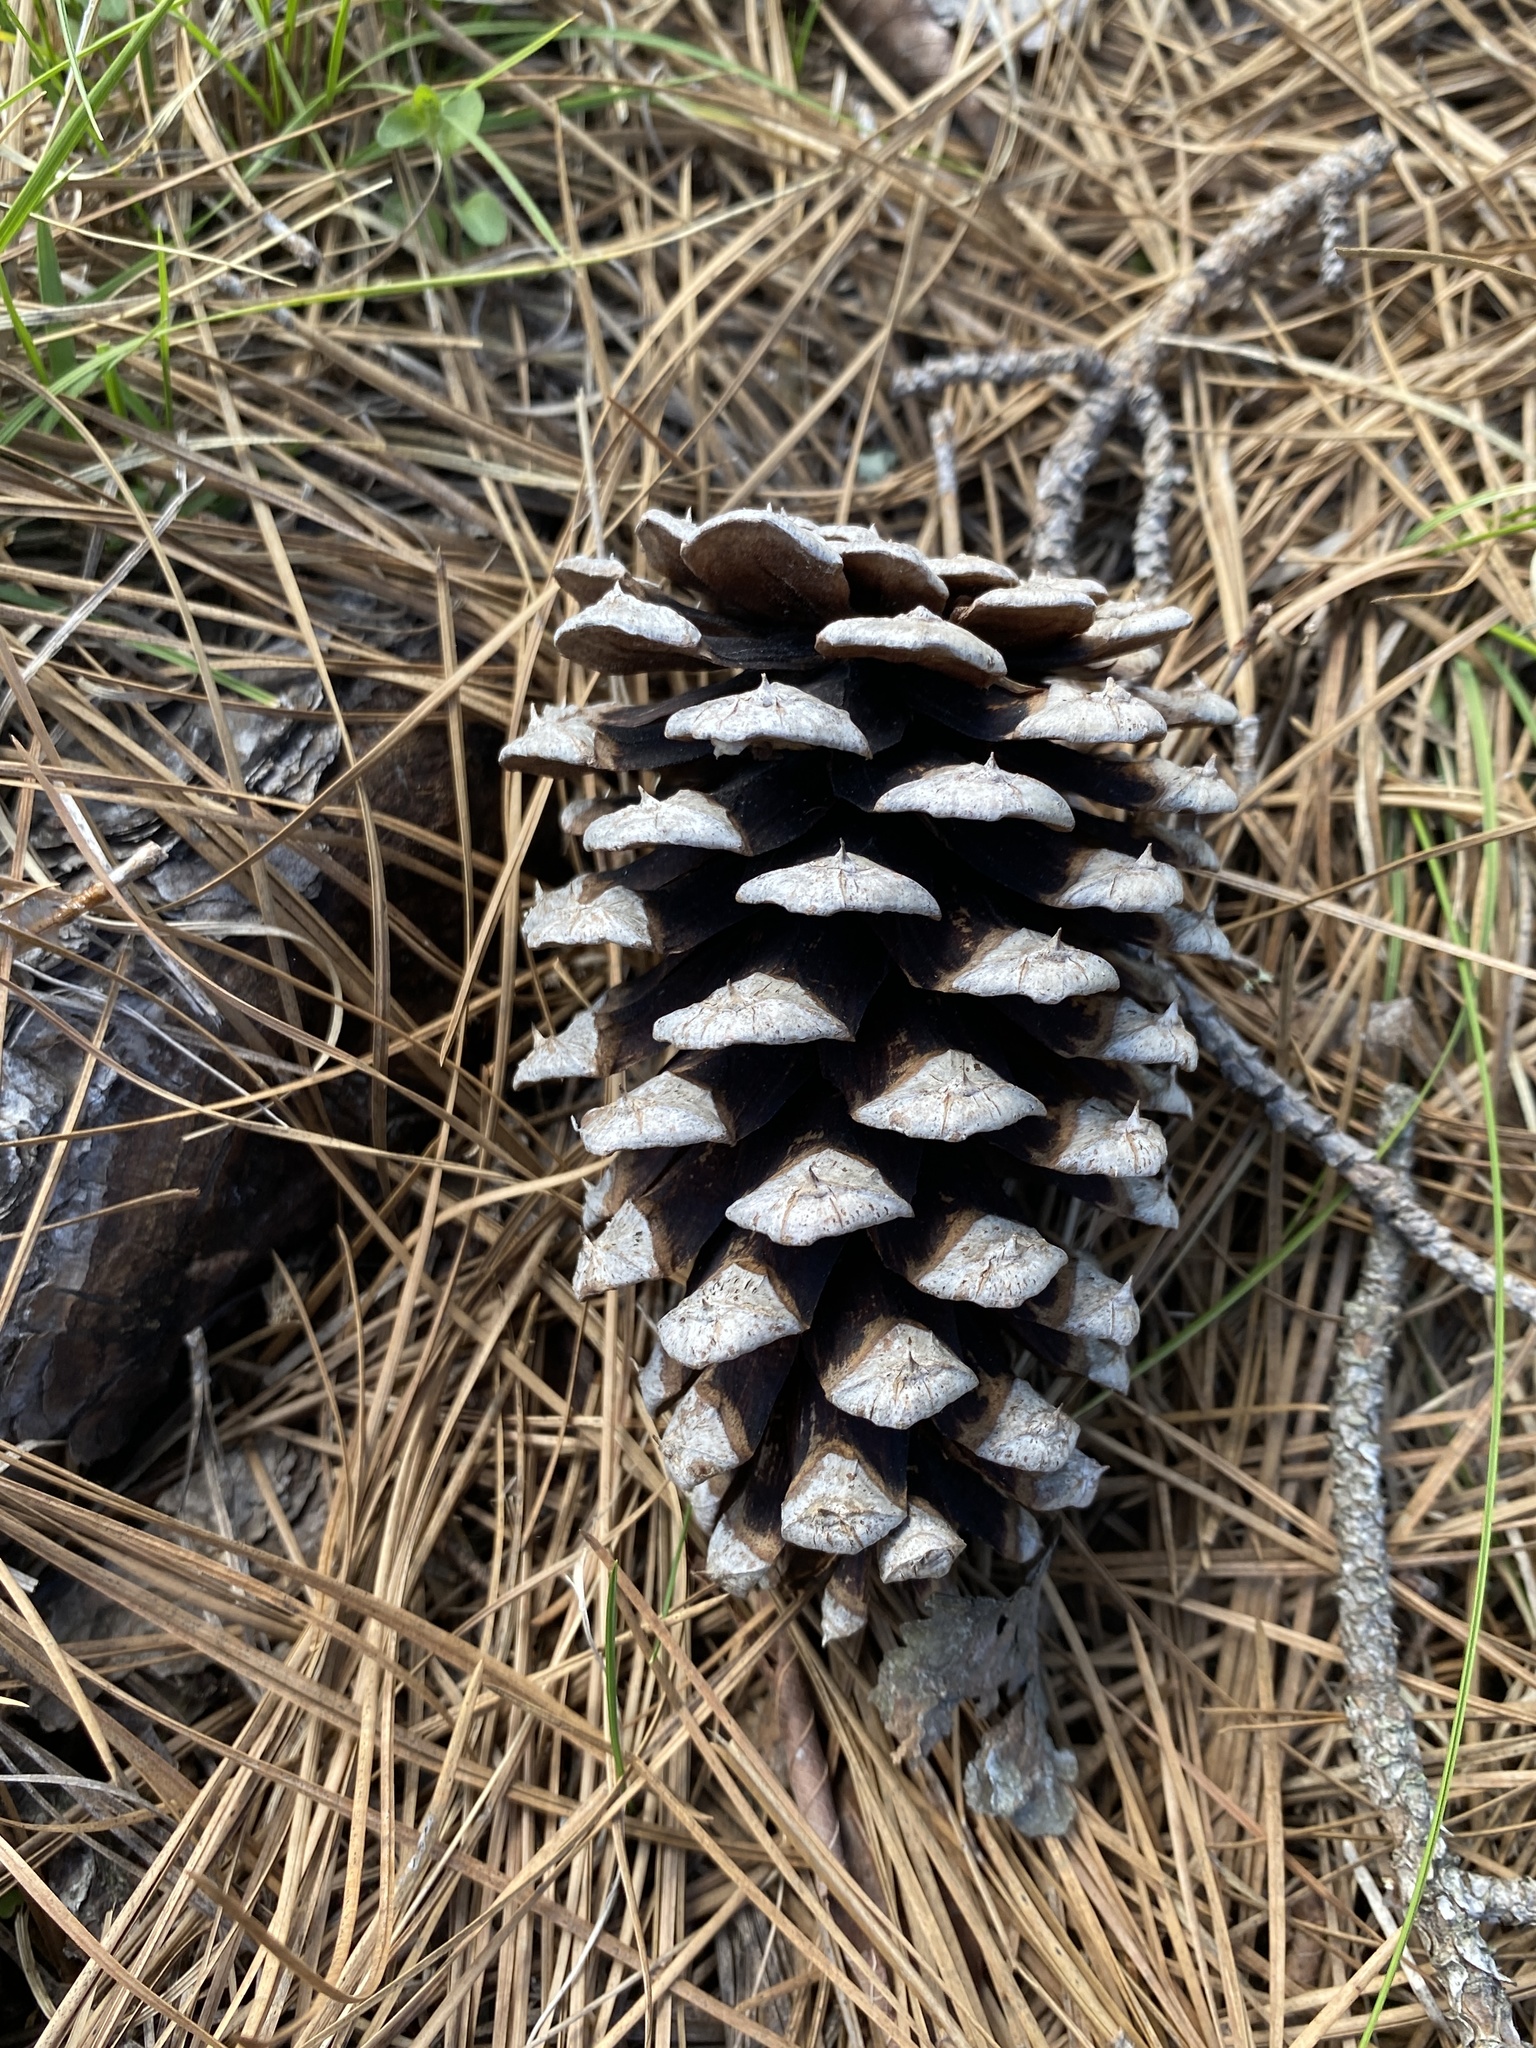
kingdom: Plantae
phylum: Tracheophyta
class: Pinopsida
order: Pinales
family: Pinaceae
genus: Pinus
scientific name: Pinus taeda
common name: Loblolly pine
